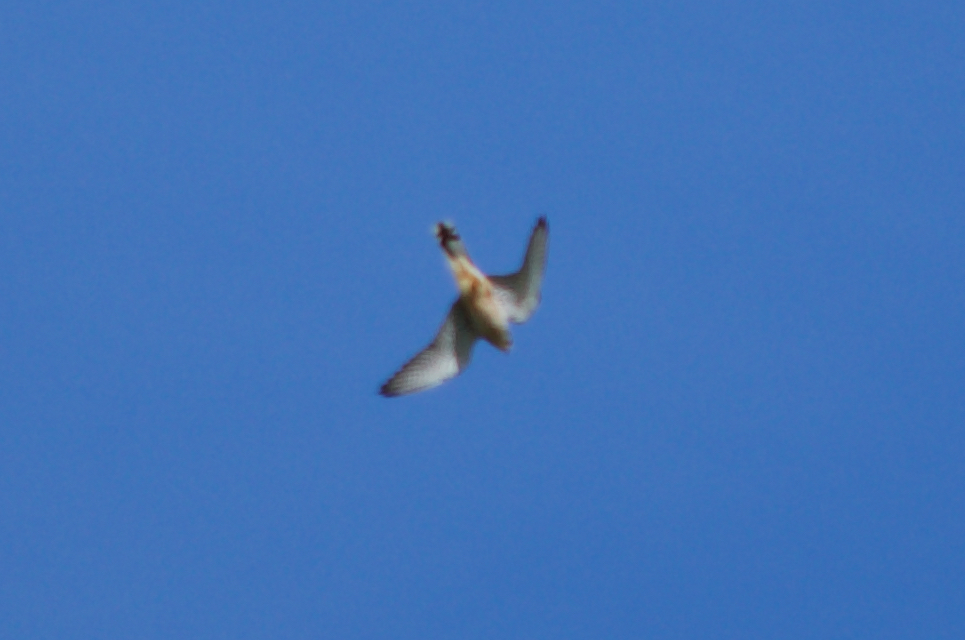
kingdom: Animalia
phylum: Chordata
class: Aves
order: Falconiformes
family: Falconidae
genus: Falco
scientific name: Falco tinnunculus
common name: Common kestrel
